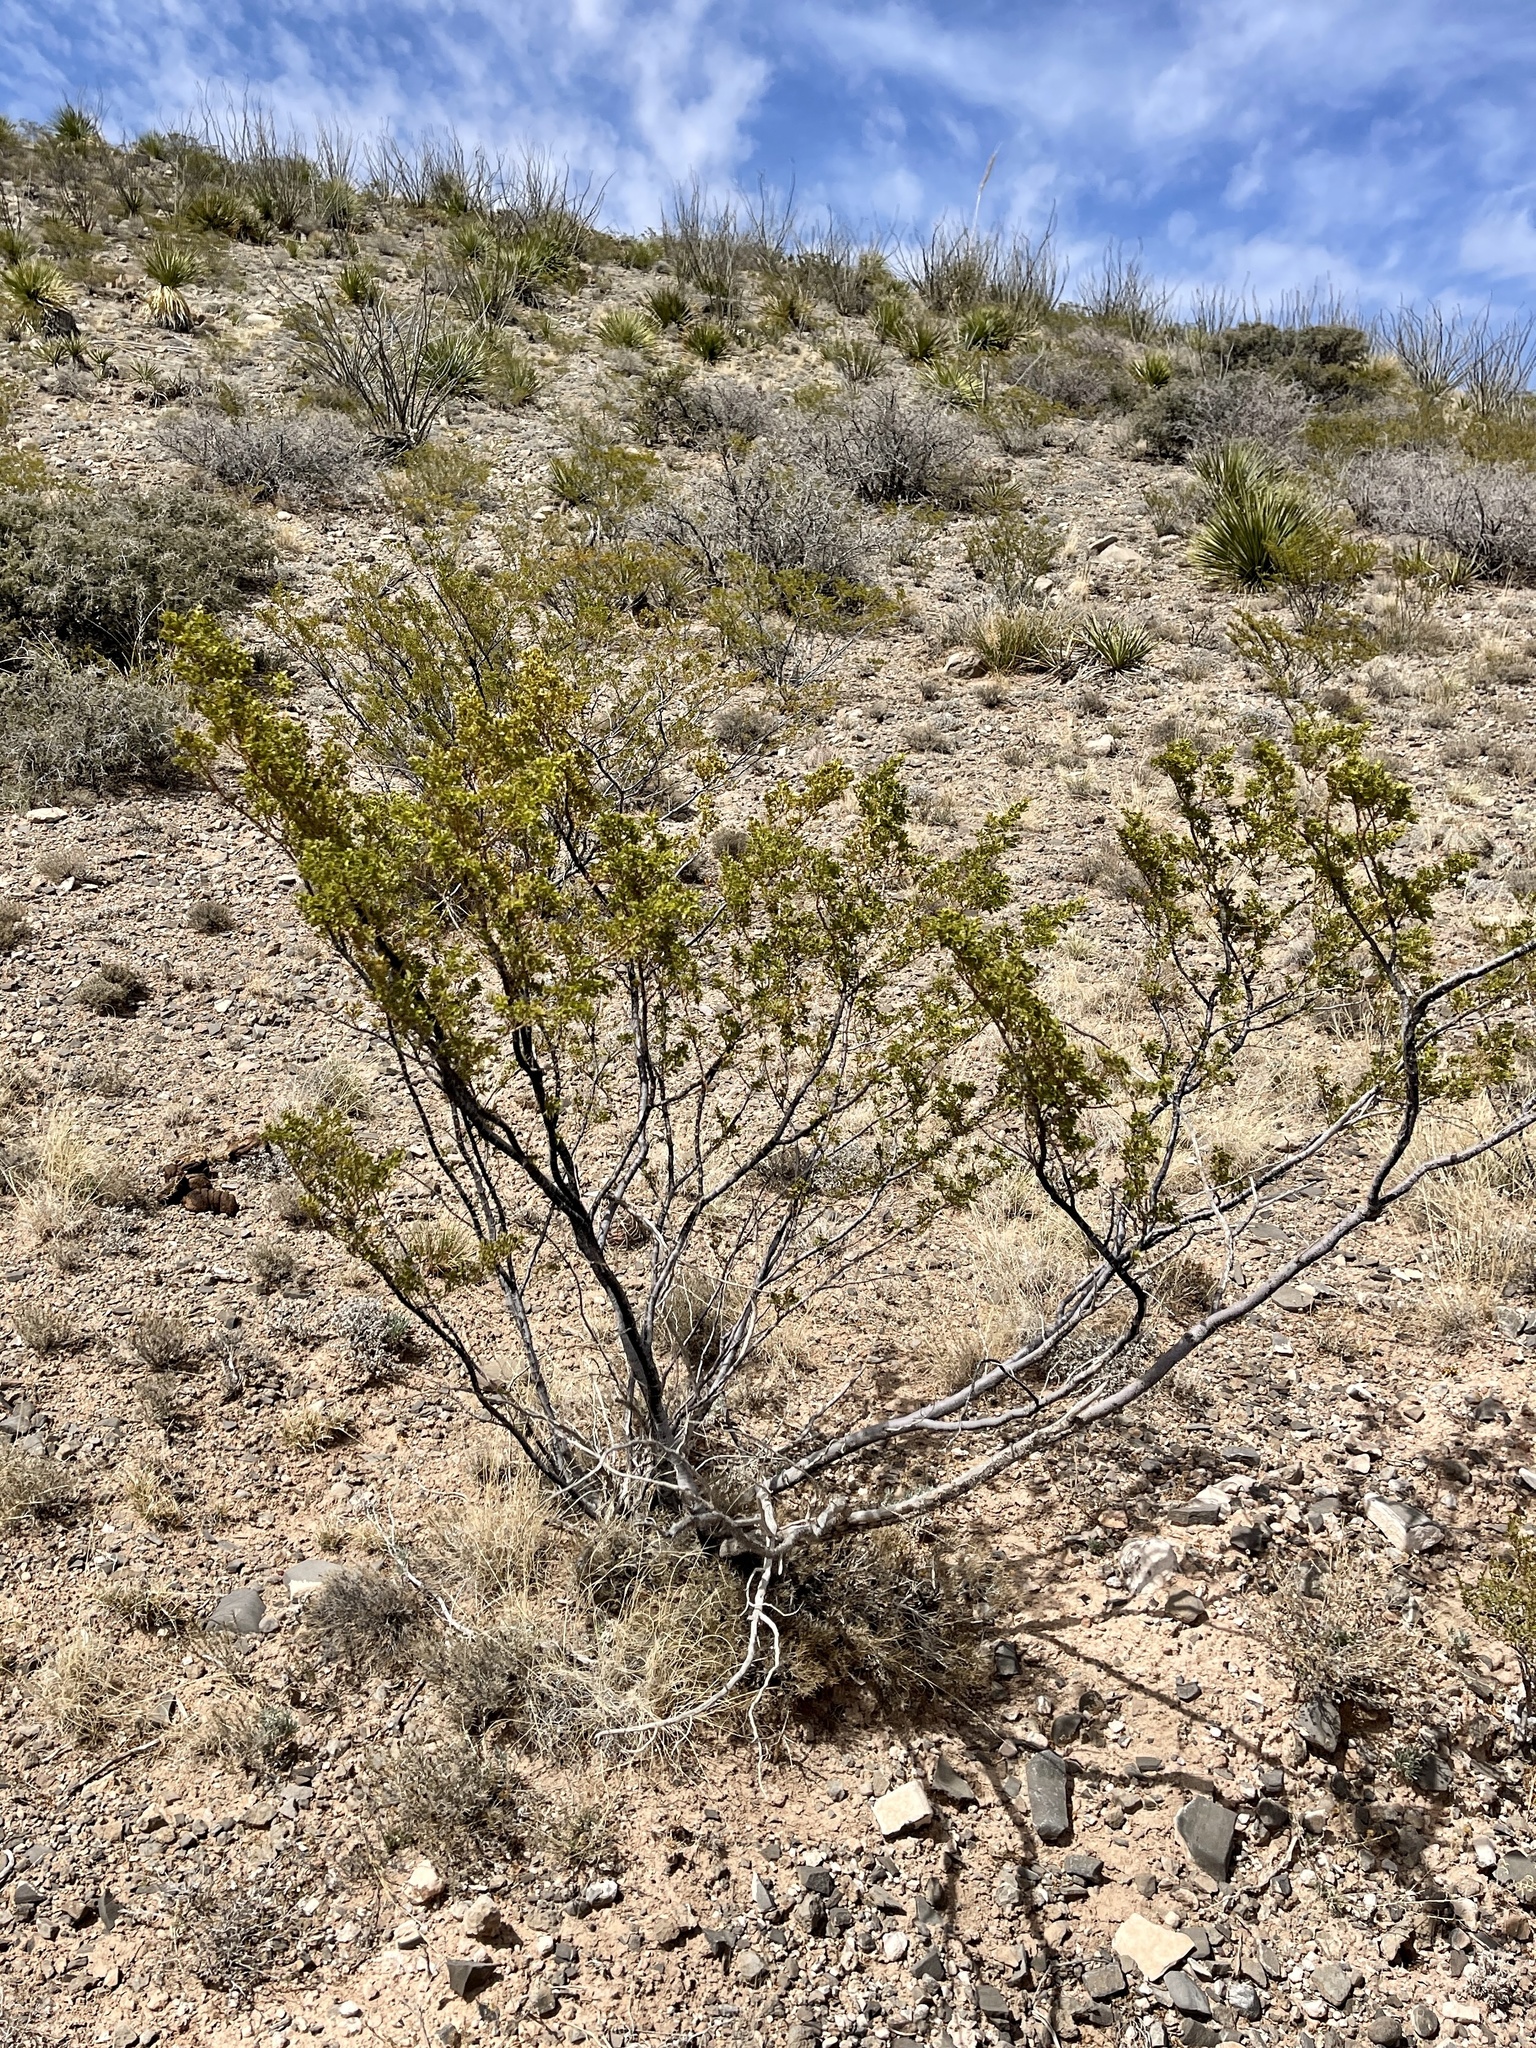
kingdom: Plantae
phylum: Tracheophyta
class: Magnoliopsida
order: Zygophyllales
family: Zygophyllaceae
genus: Larrea
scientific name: Larrea tridentata
